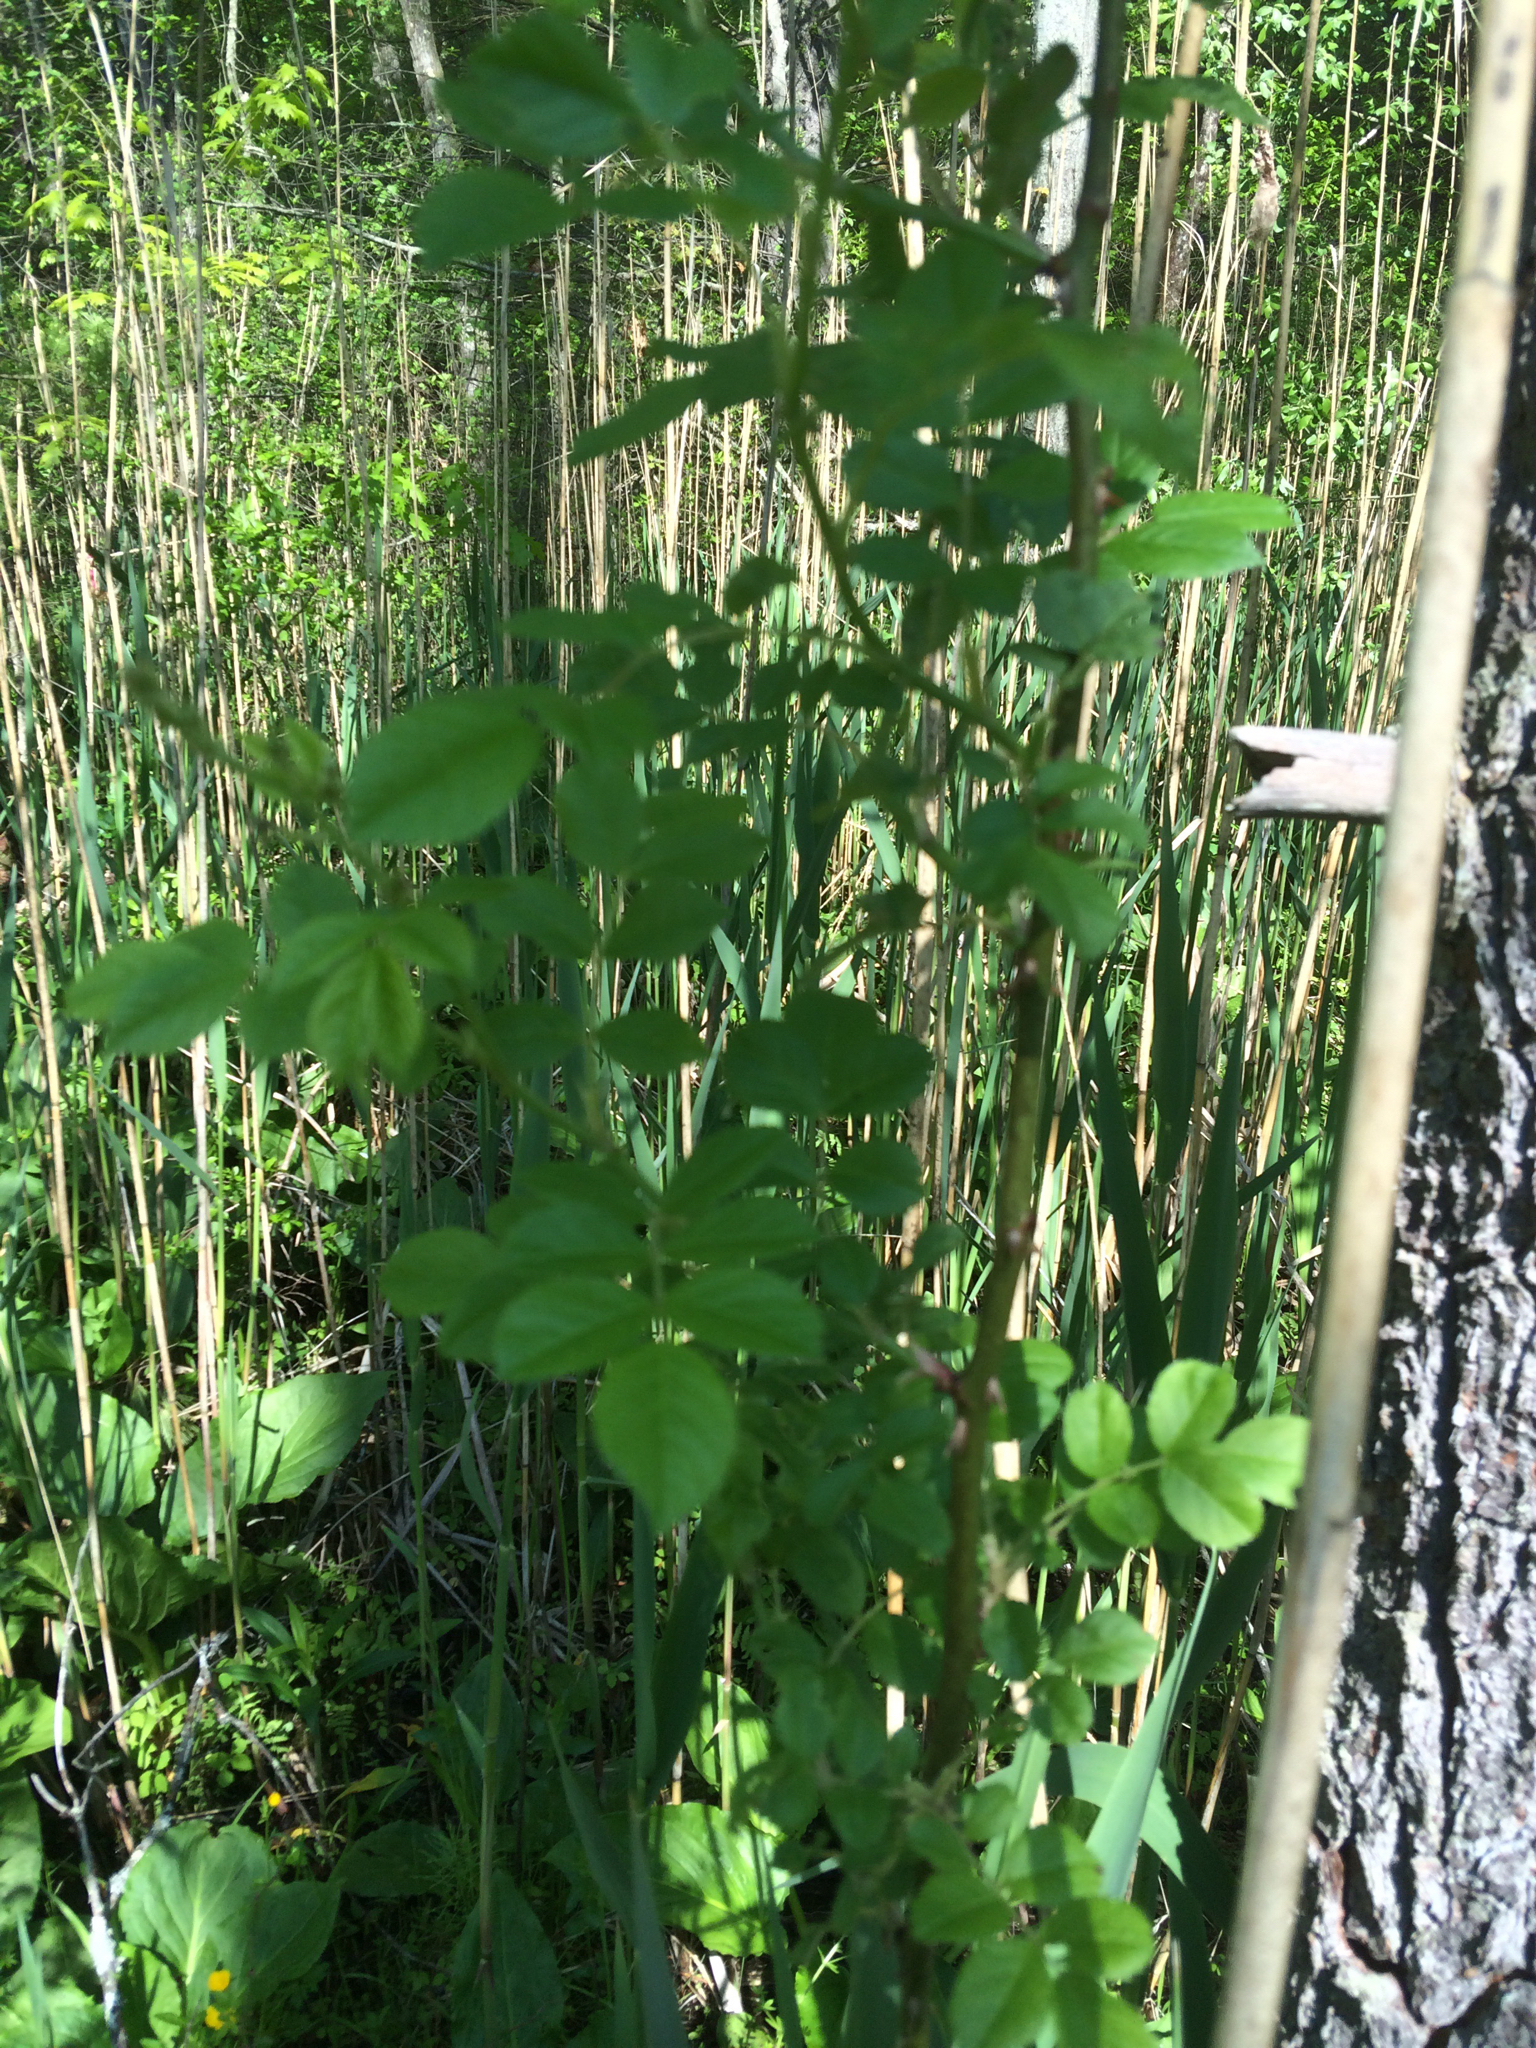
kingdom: Plantae
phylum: Tracheophyta
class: Magnoliopsida
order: Rosales
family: Rosaceae
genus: Rosa
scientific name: Rosa multiflora
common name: Multiflora rose
